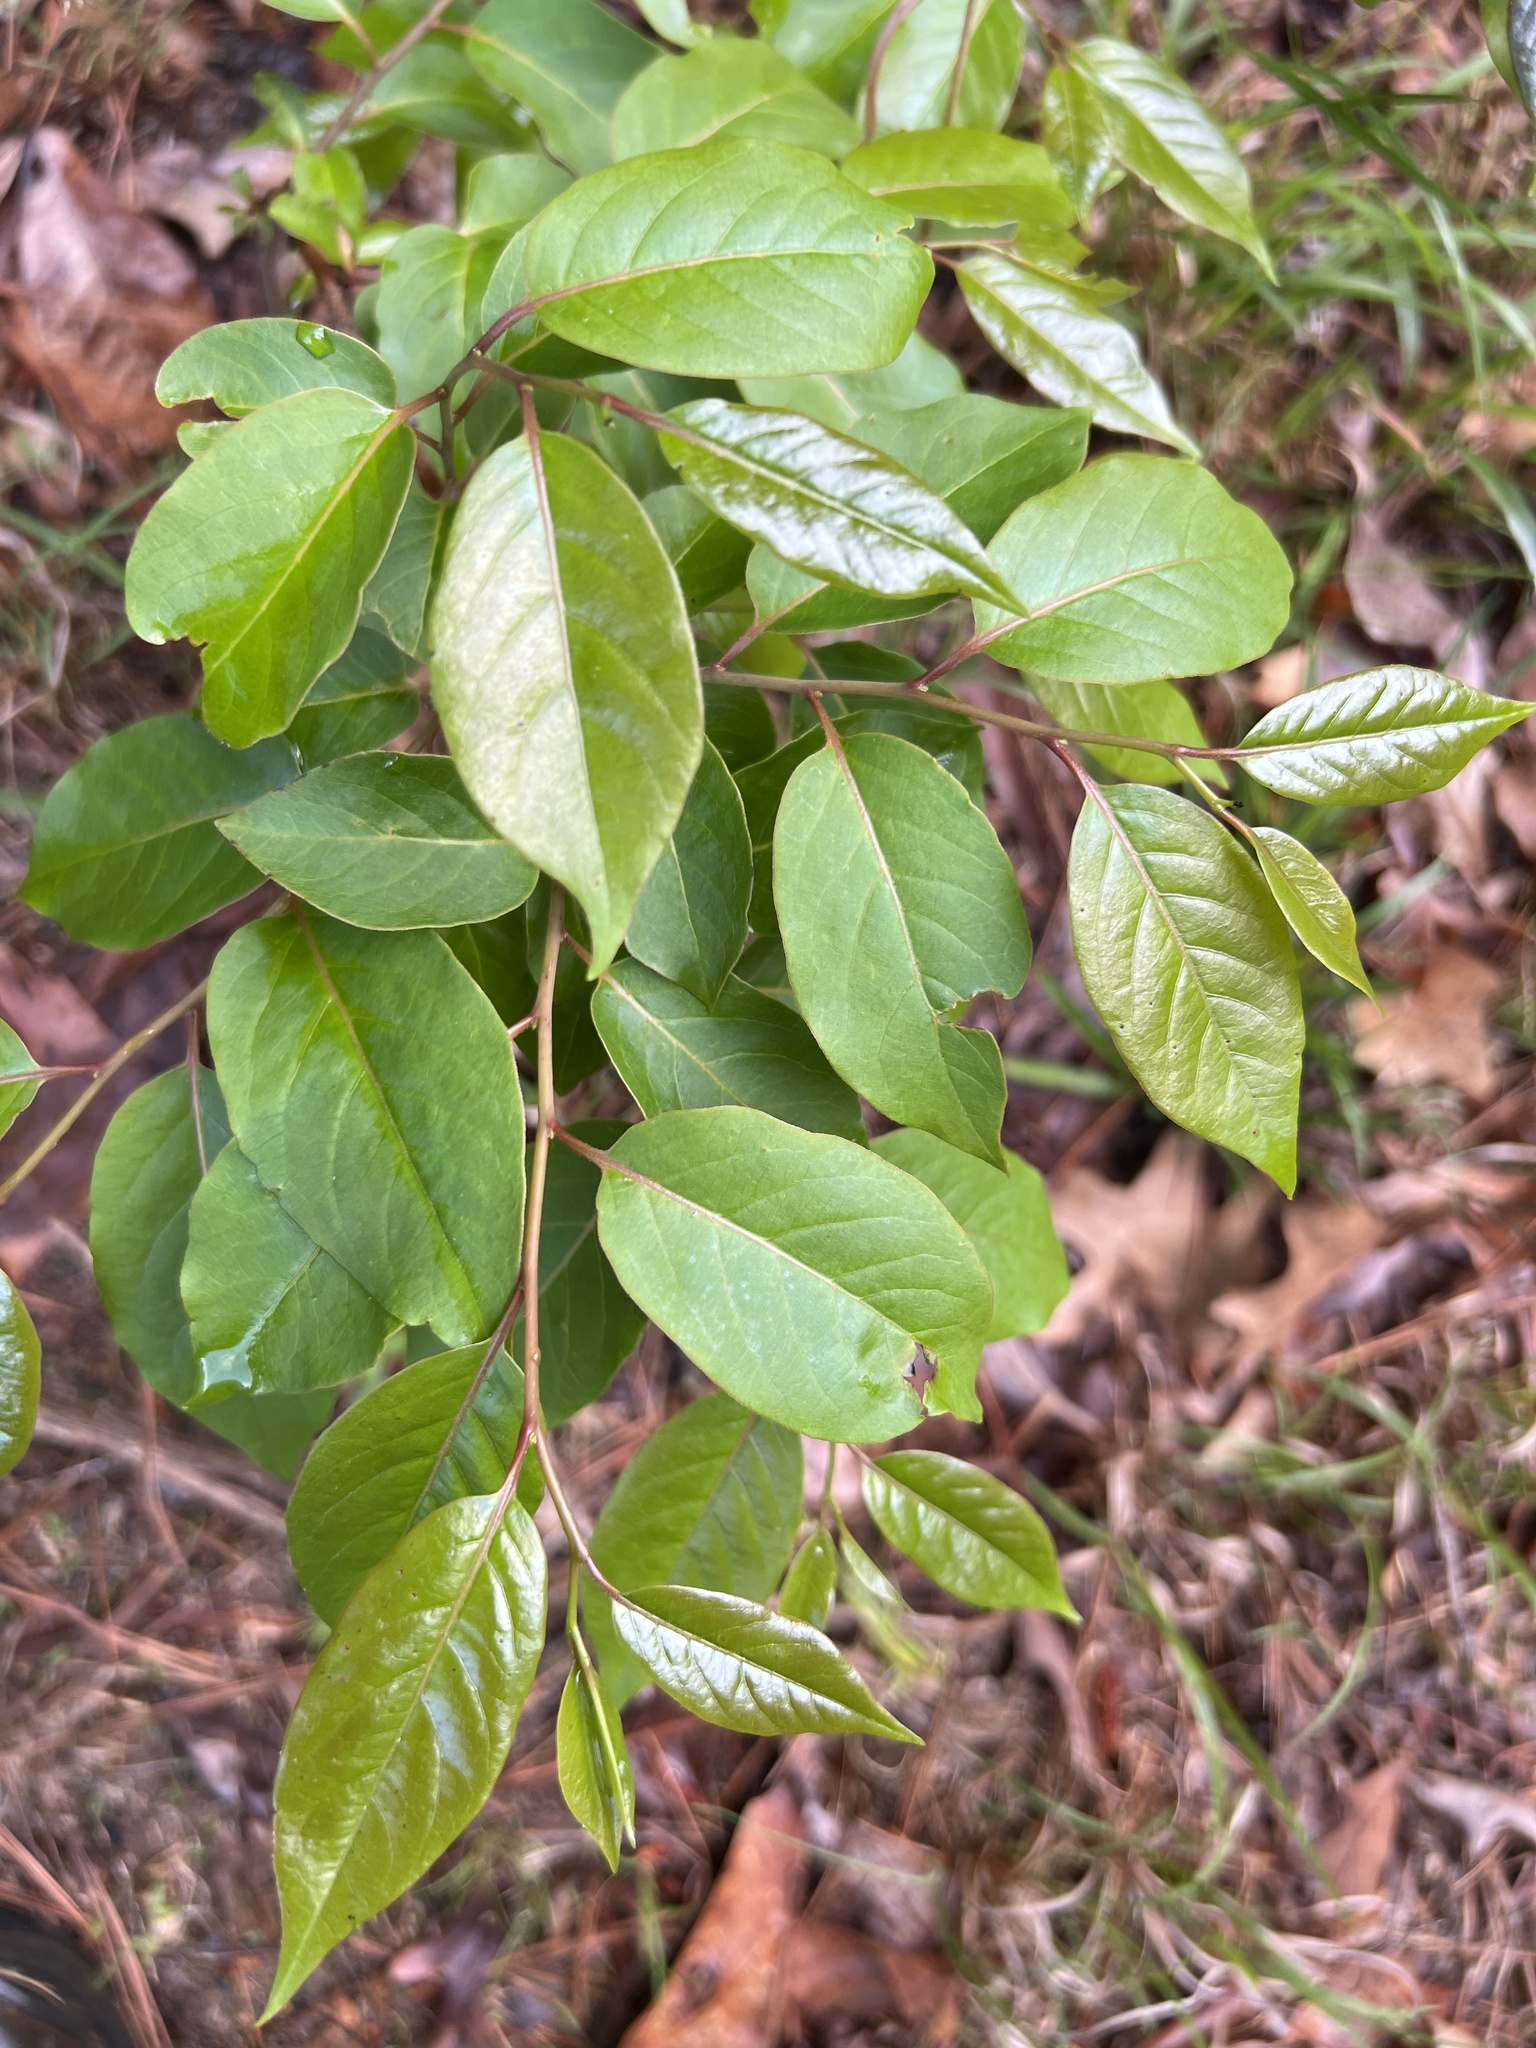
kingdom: Plantae
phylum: Tracheophyta
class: Magnoliopsida
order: Ericales
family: Ebenaceae
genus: Diospyros
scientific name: Diospyros virginiana
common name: Persimmon
